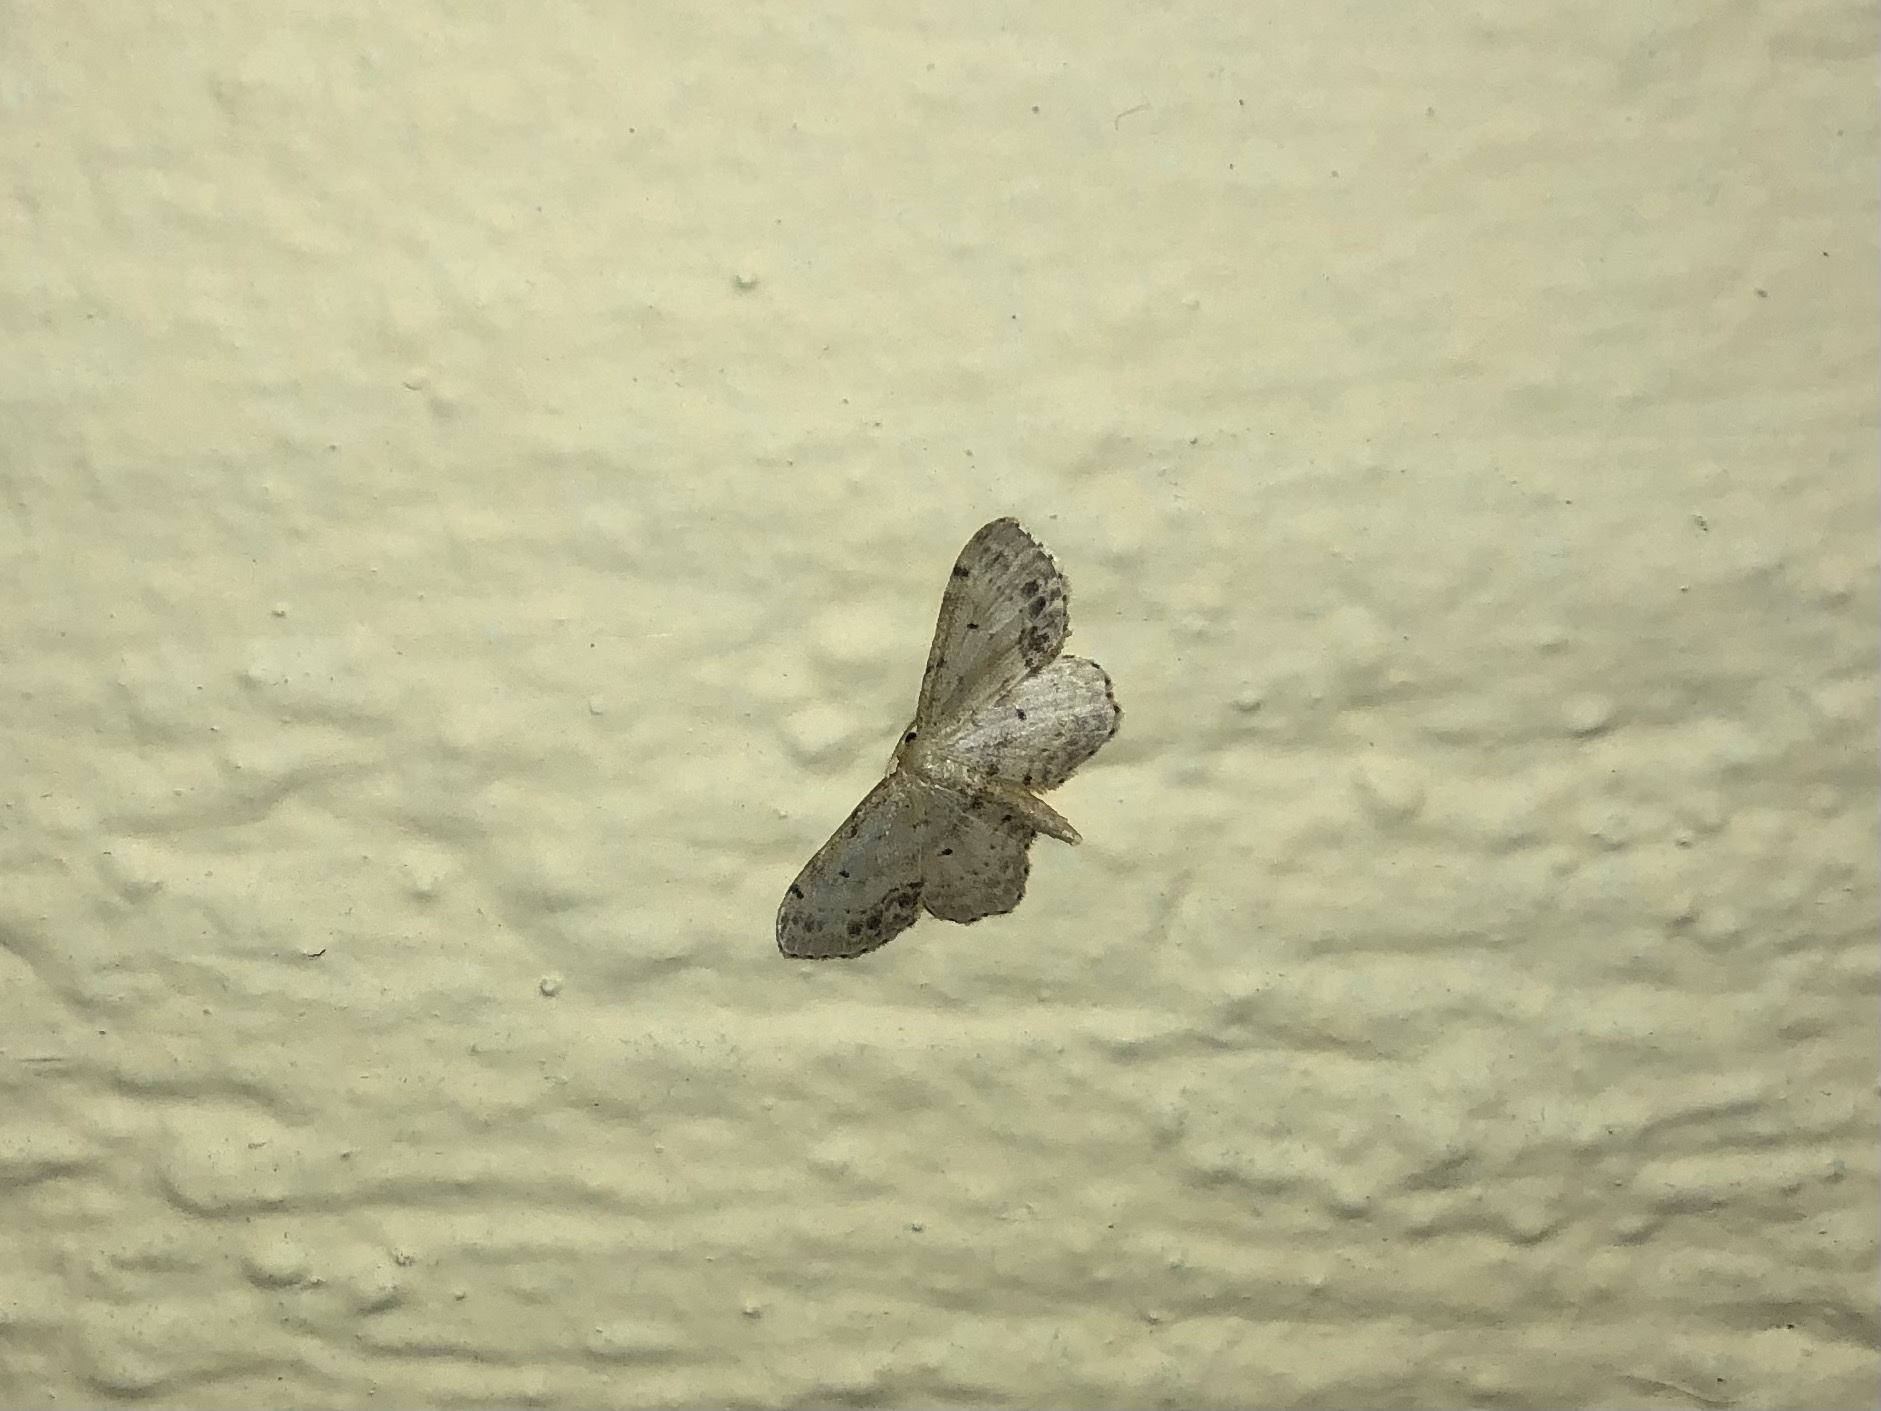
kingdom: Animalia
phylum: Arthropoda
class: Insecta
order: Lepidoptera
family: Geometridae
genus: Idaea
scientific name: Idaea dimidiata
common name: Single-dotted wave
